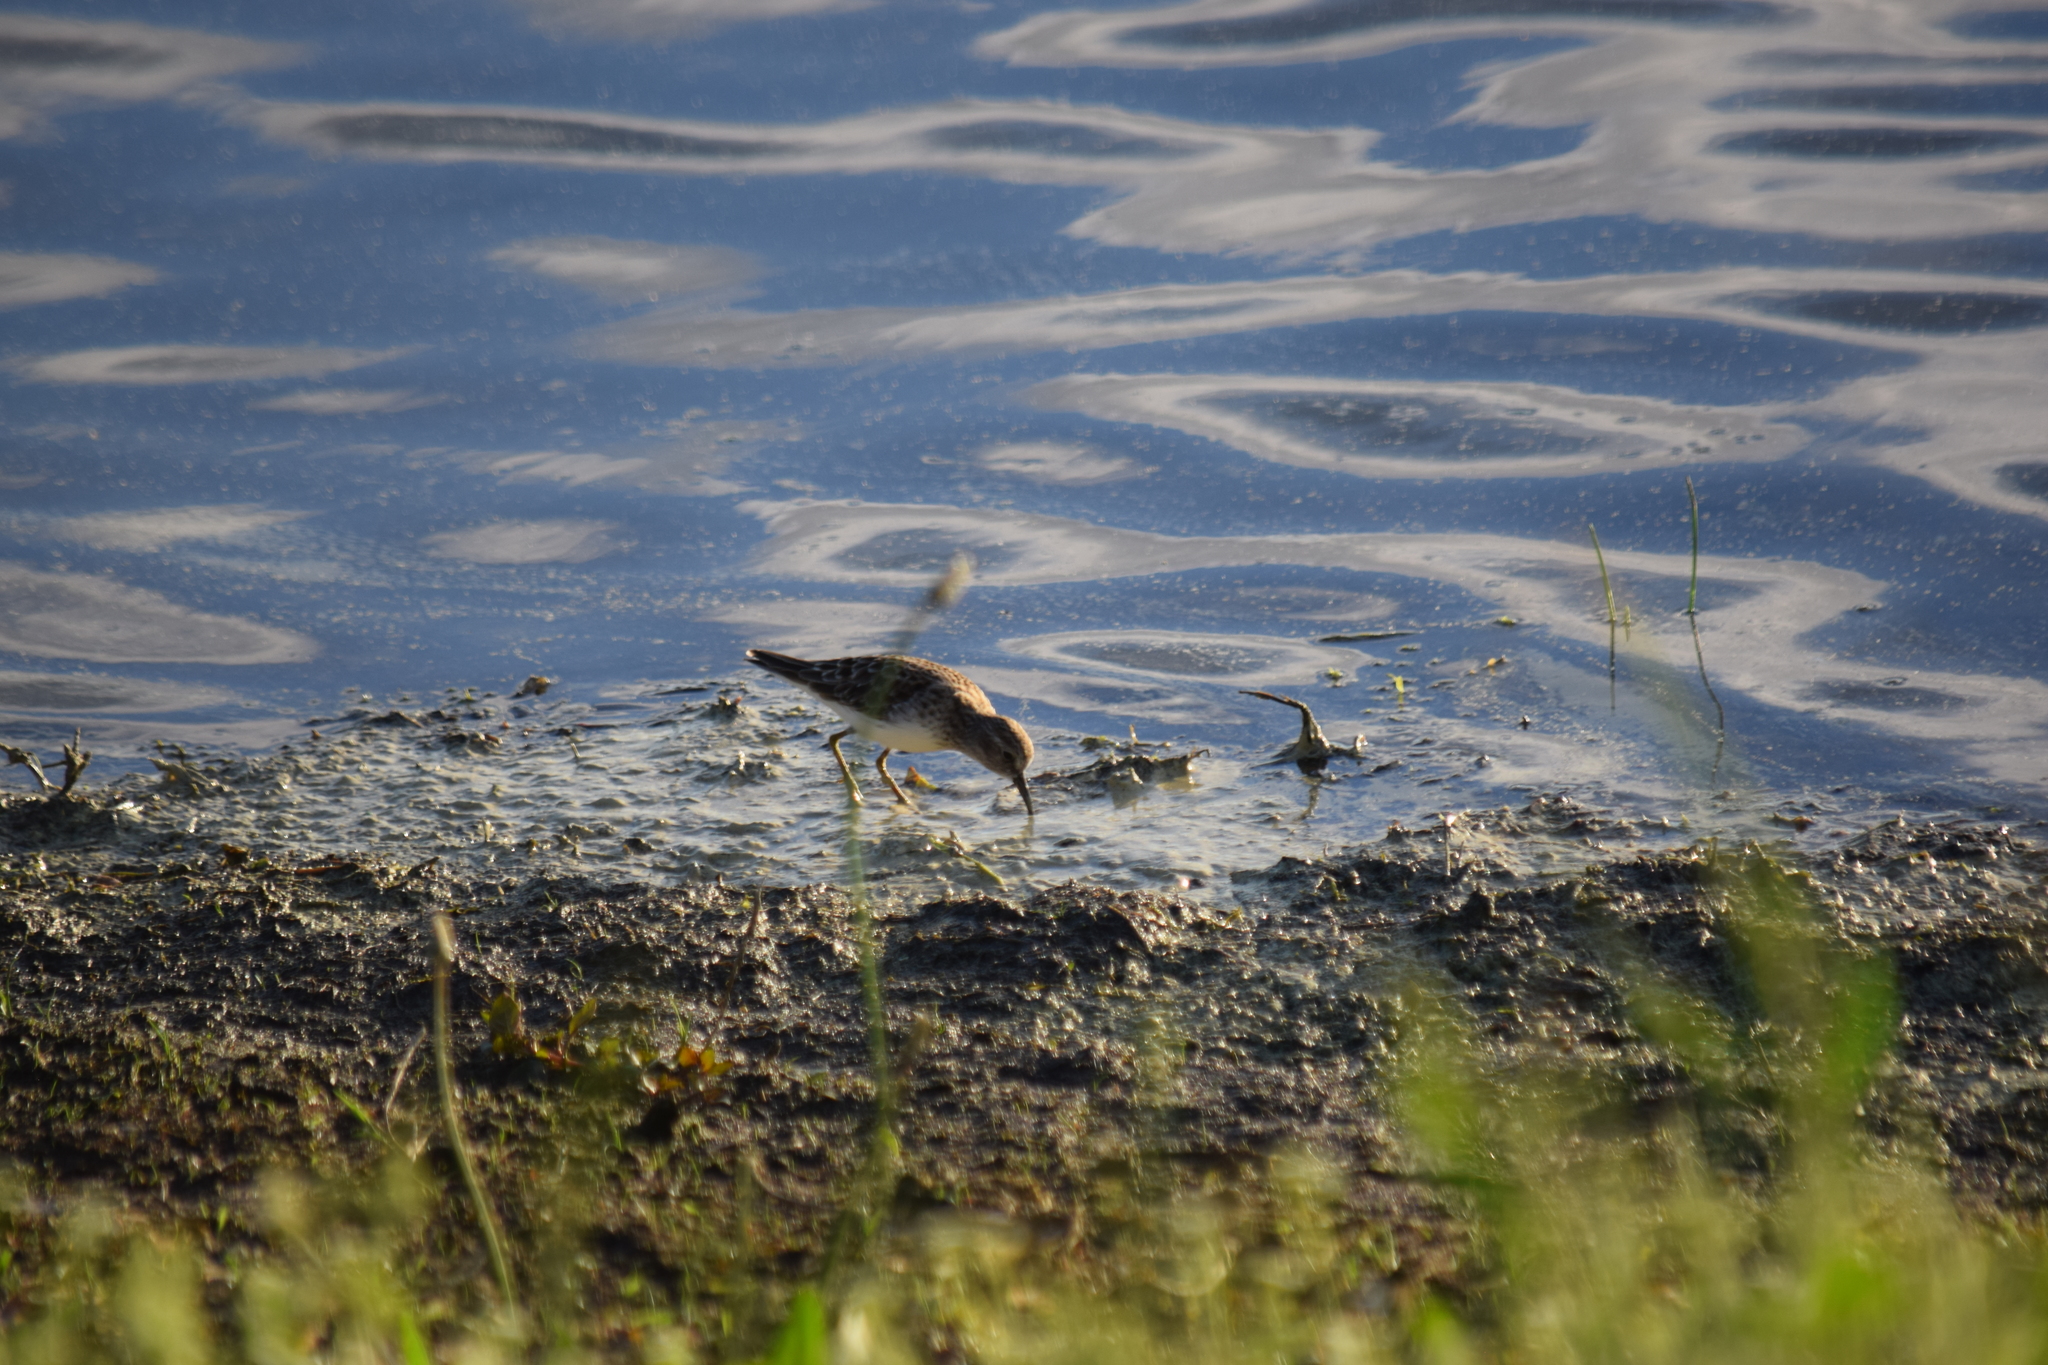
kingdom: Animalia
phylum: Chordata
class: Aves
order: Charadriiformes
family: Scolopacidae
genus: Calidris
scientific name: Calidris minutilla
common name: Least sandpiper
